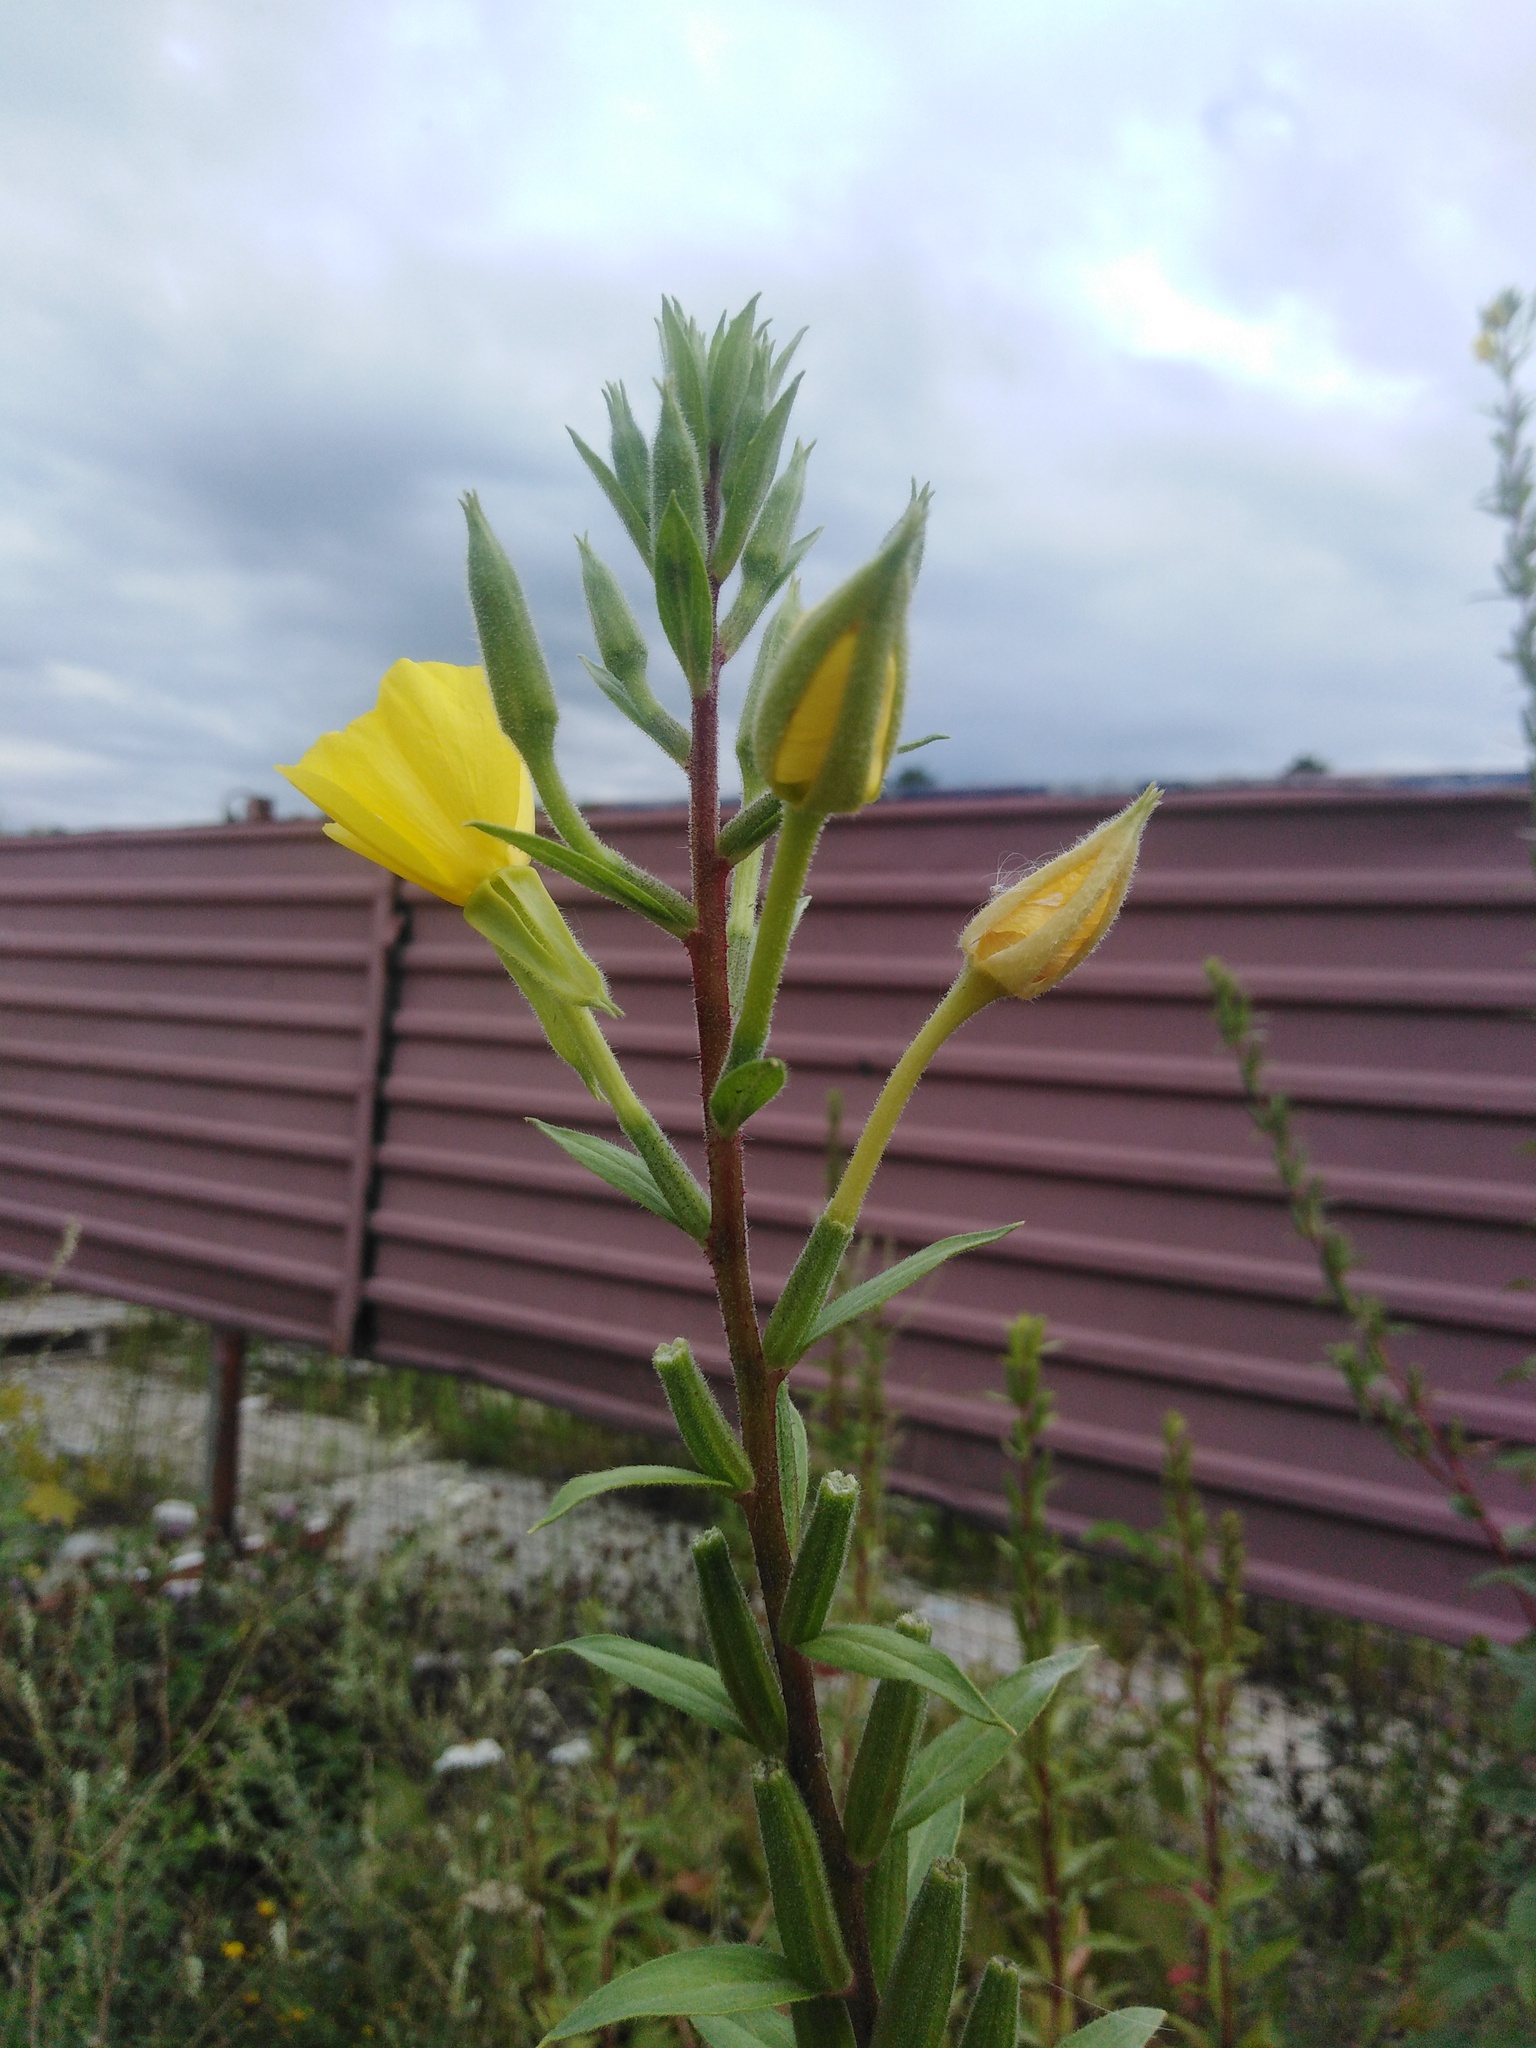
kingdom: Plantae
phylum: Tracheophyta
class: Magnoliopsida
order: Myrtales
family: Onagraceae
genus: Oenothera
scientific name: Oenothera rubricaulis
